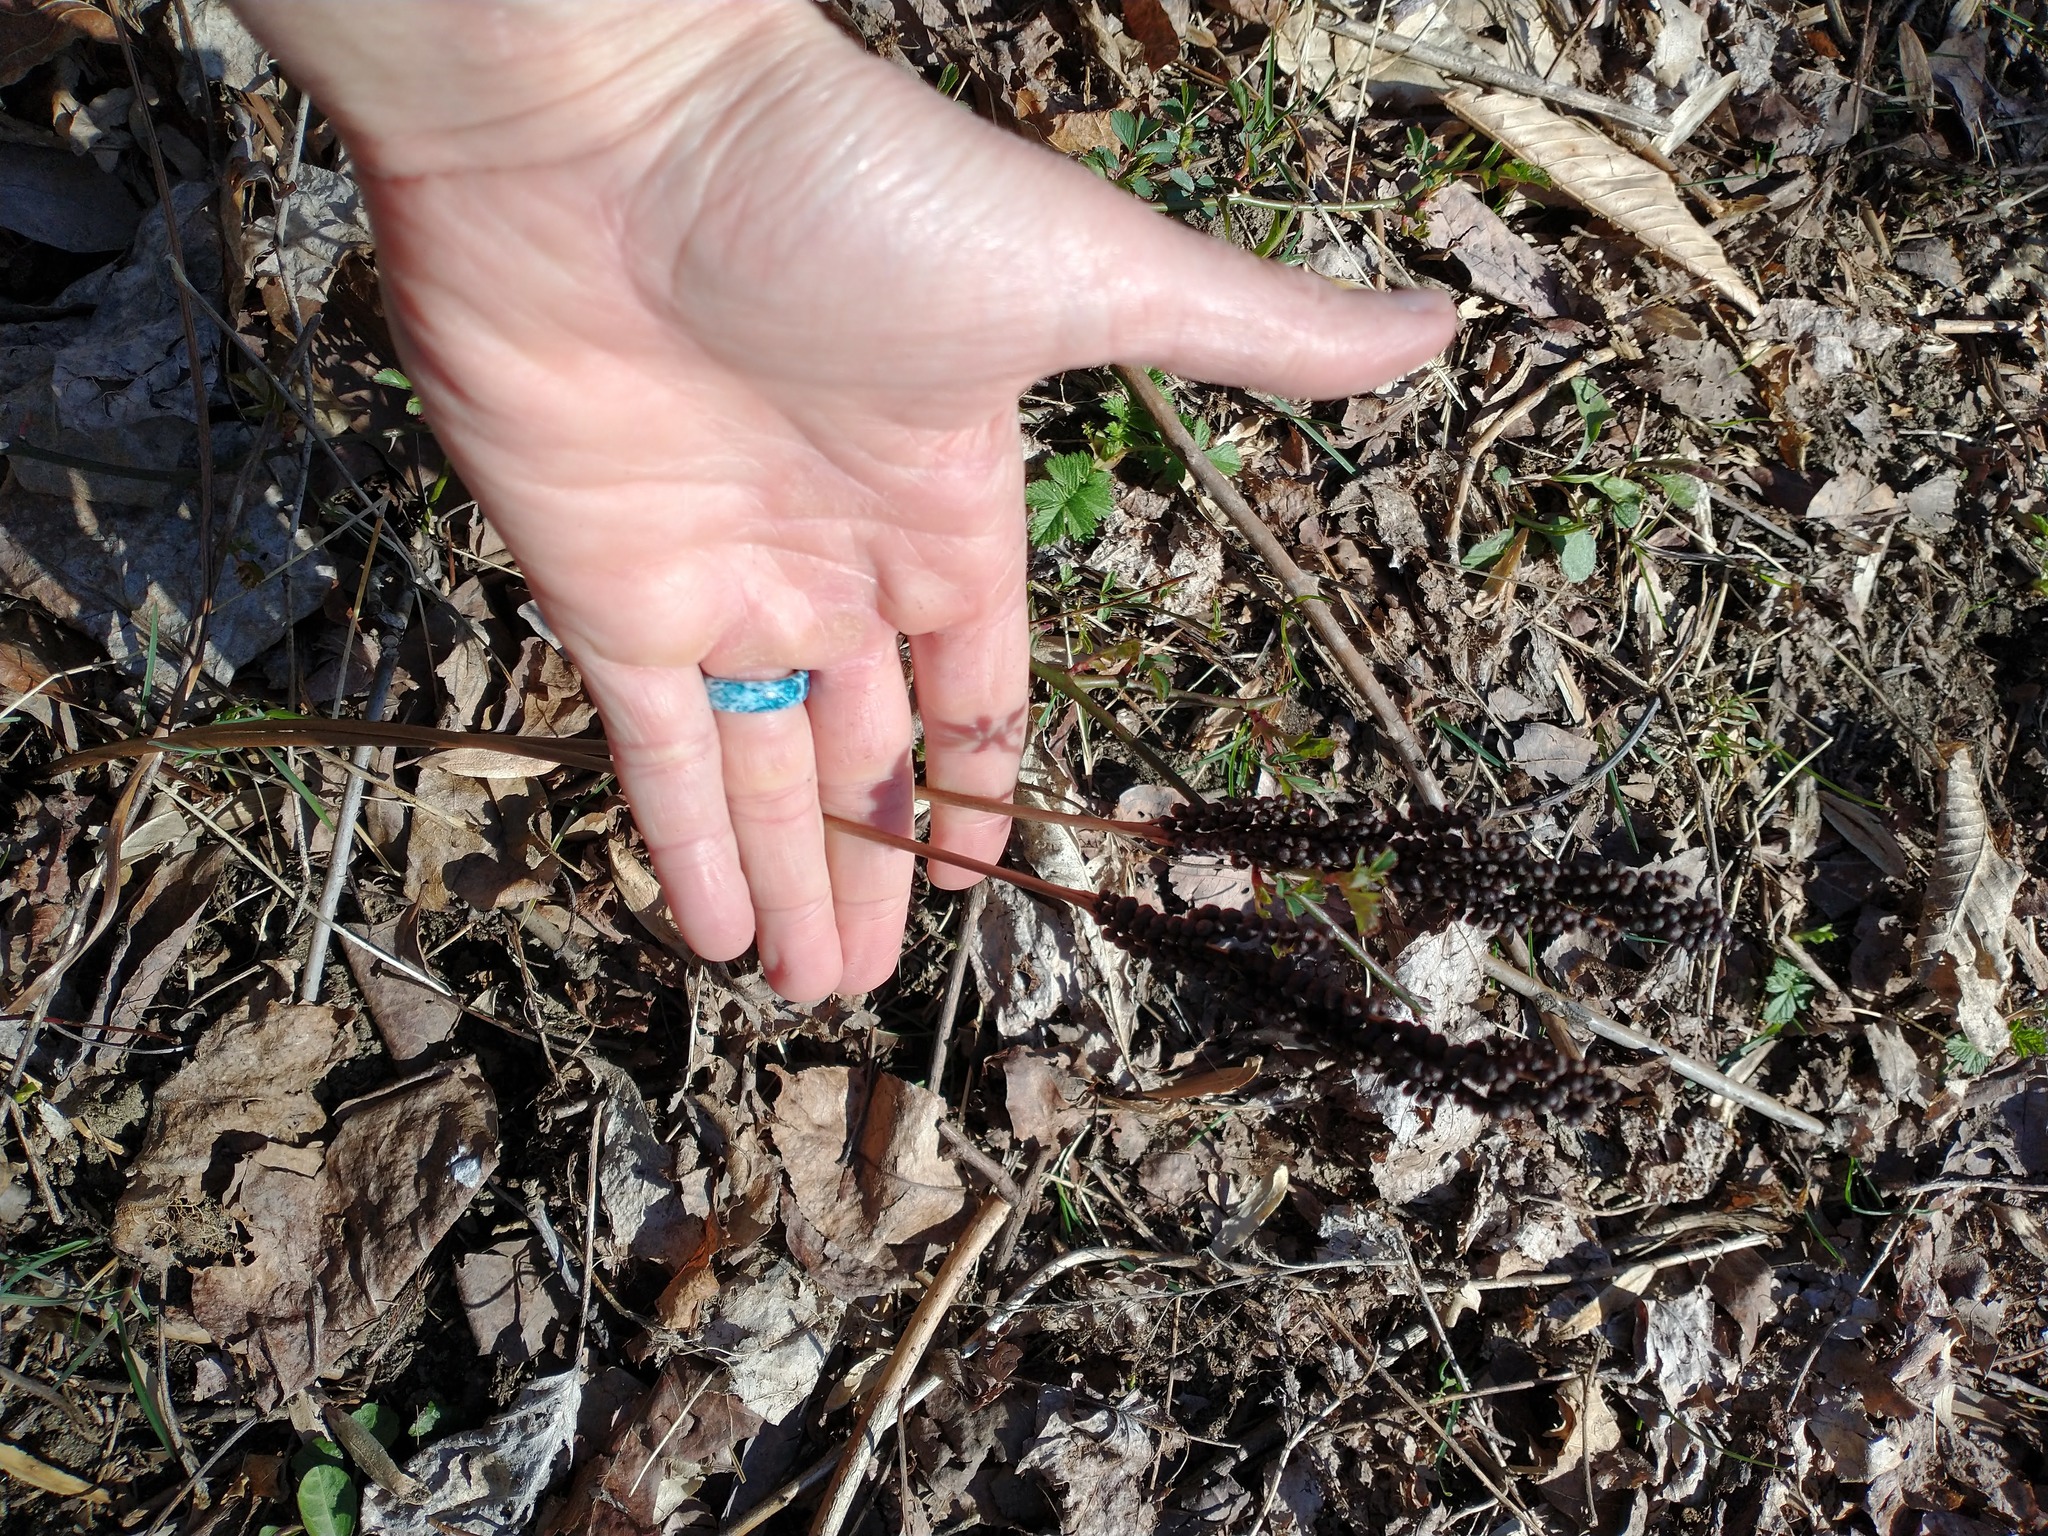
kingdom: Plantae
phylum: Tracheophyta
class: Polypodiopsida
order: Polypodiales
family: Onocleaceae
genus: Onoclea
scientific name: Onoclea sensibilis
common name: Sensitive fern
